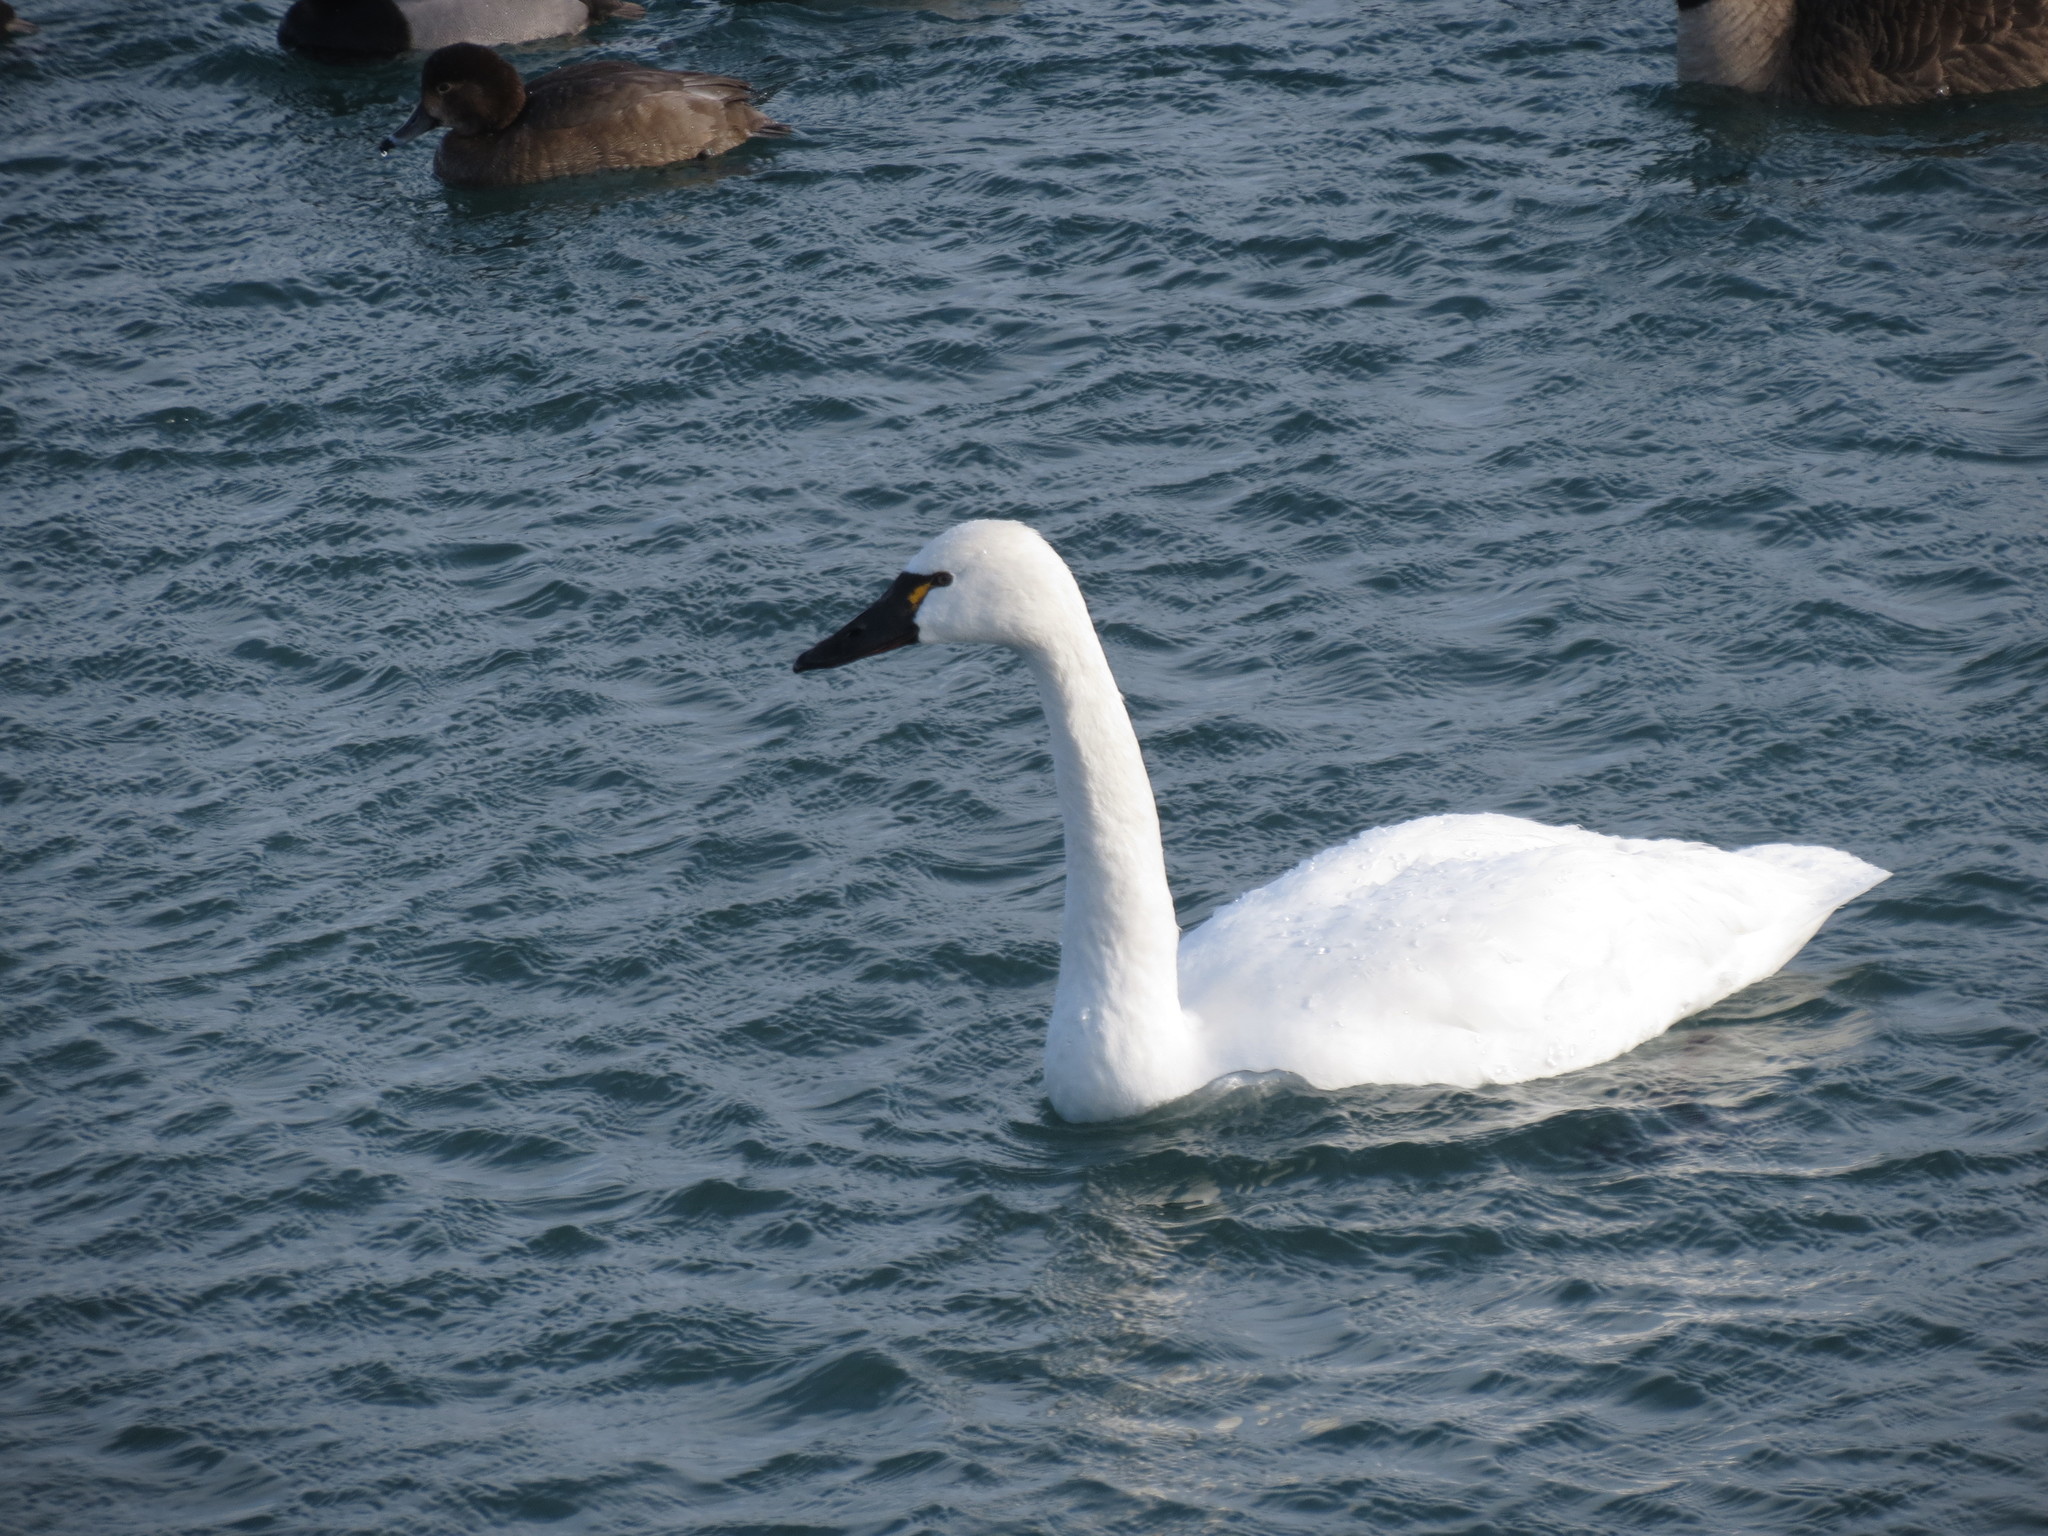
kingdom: Animalia
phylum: Chordata
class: Aves
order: Anseriformes
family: Anatidae
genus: Cygnus
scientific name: Cygnus columbianus
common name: Tundra swan
